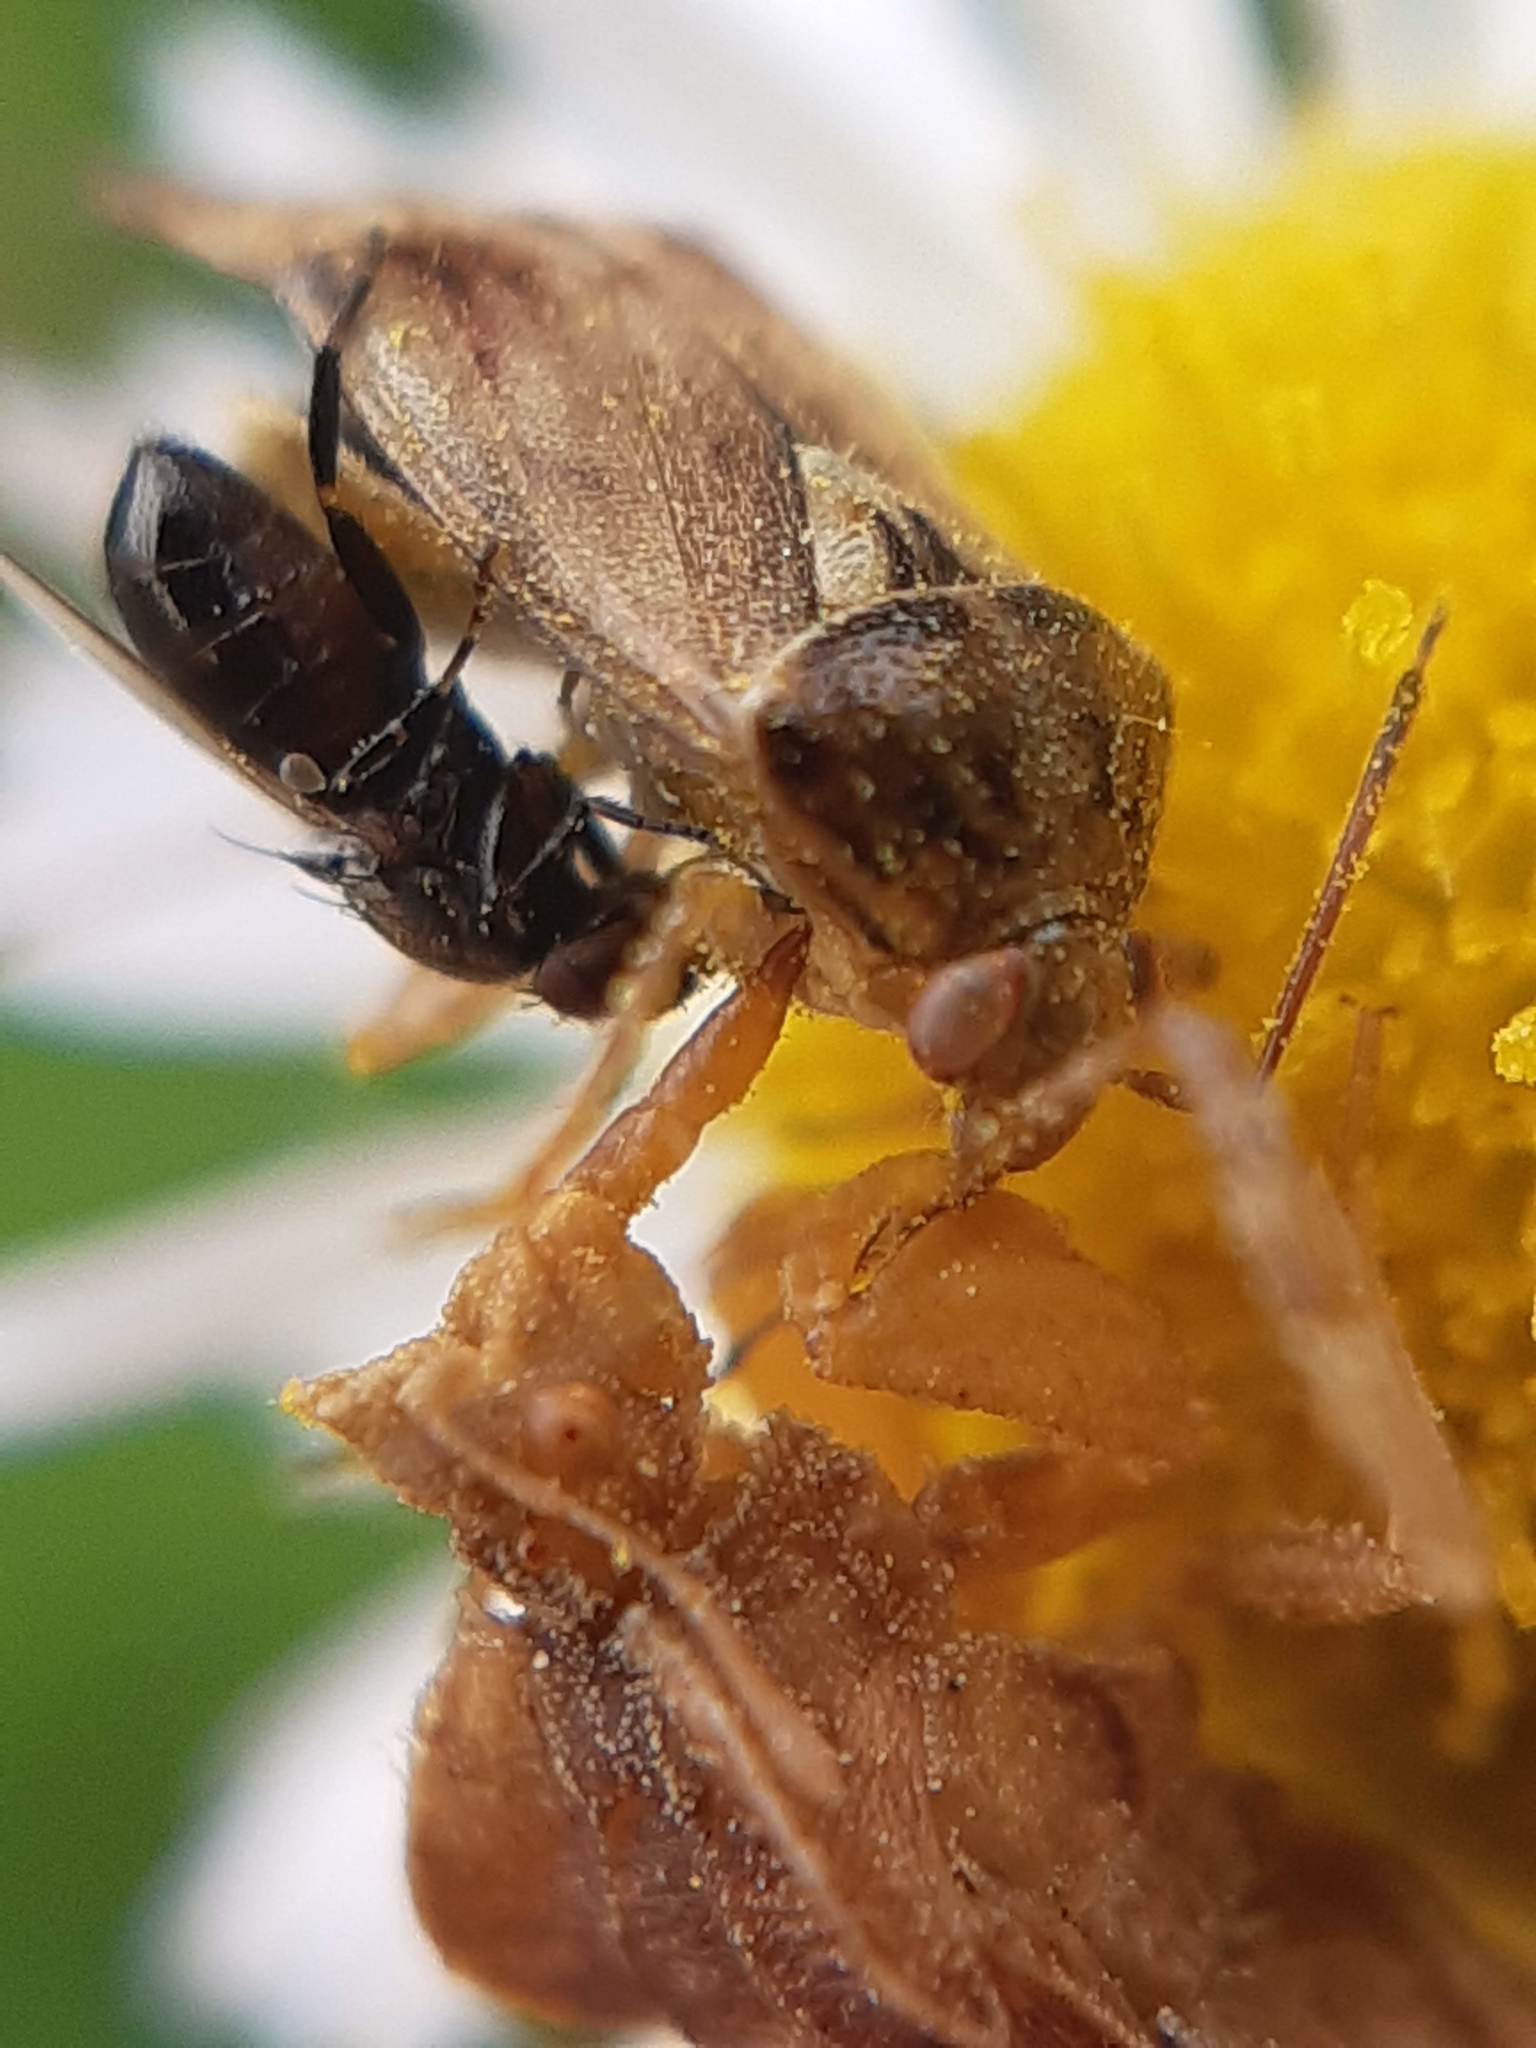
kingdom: Animalia
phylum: Arthropoda
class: Insecta
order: Hemiptera
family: Reduviidae
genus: Phymata
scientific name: Phymata crassipes
